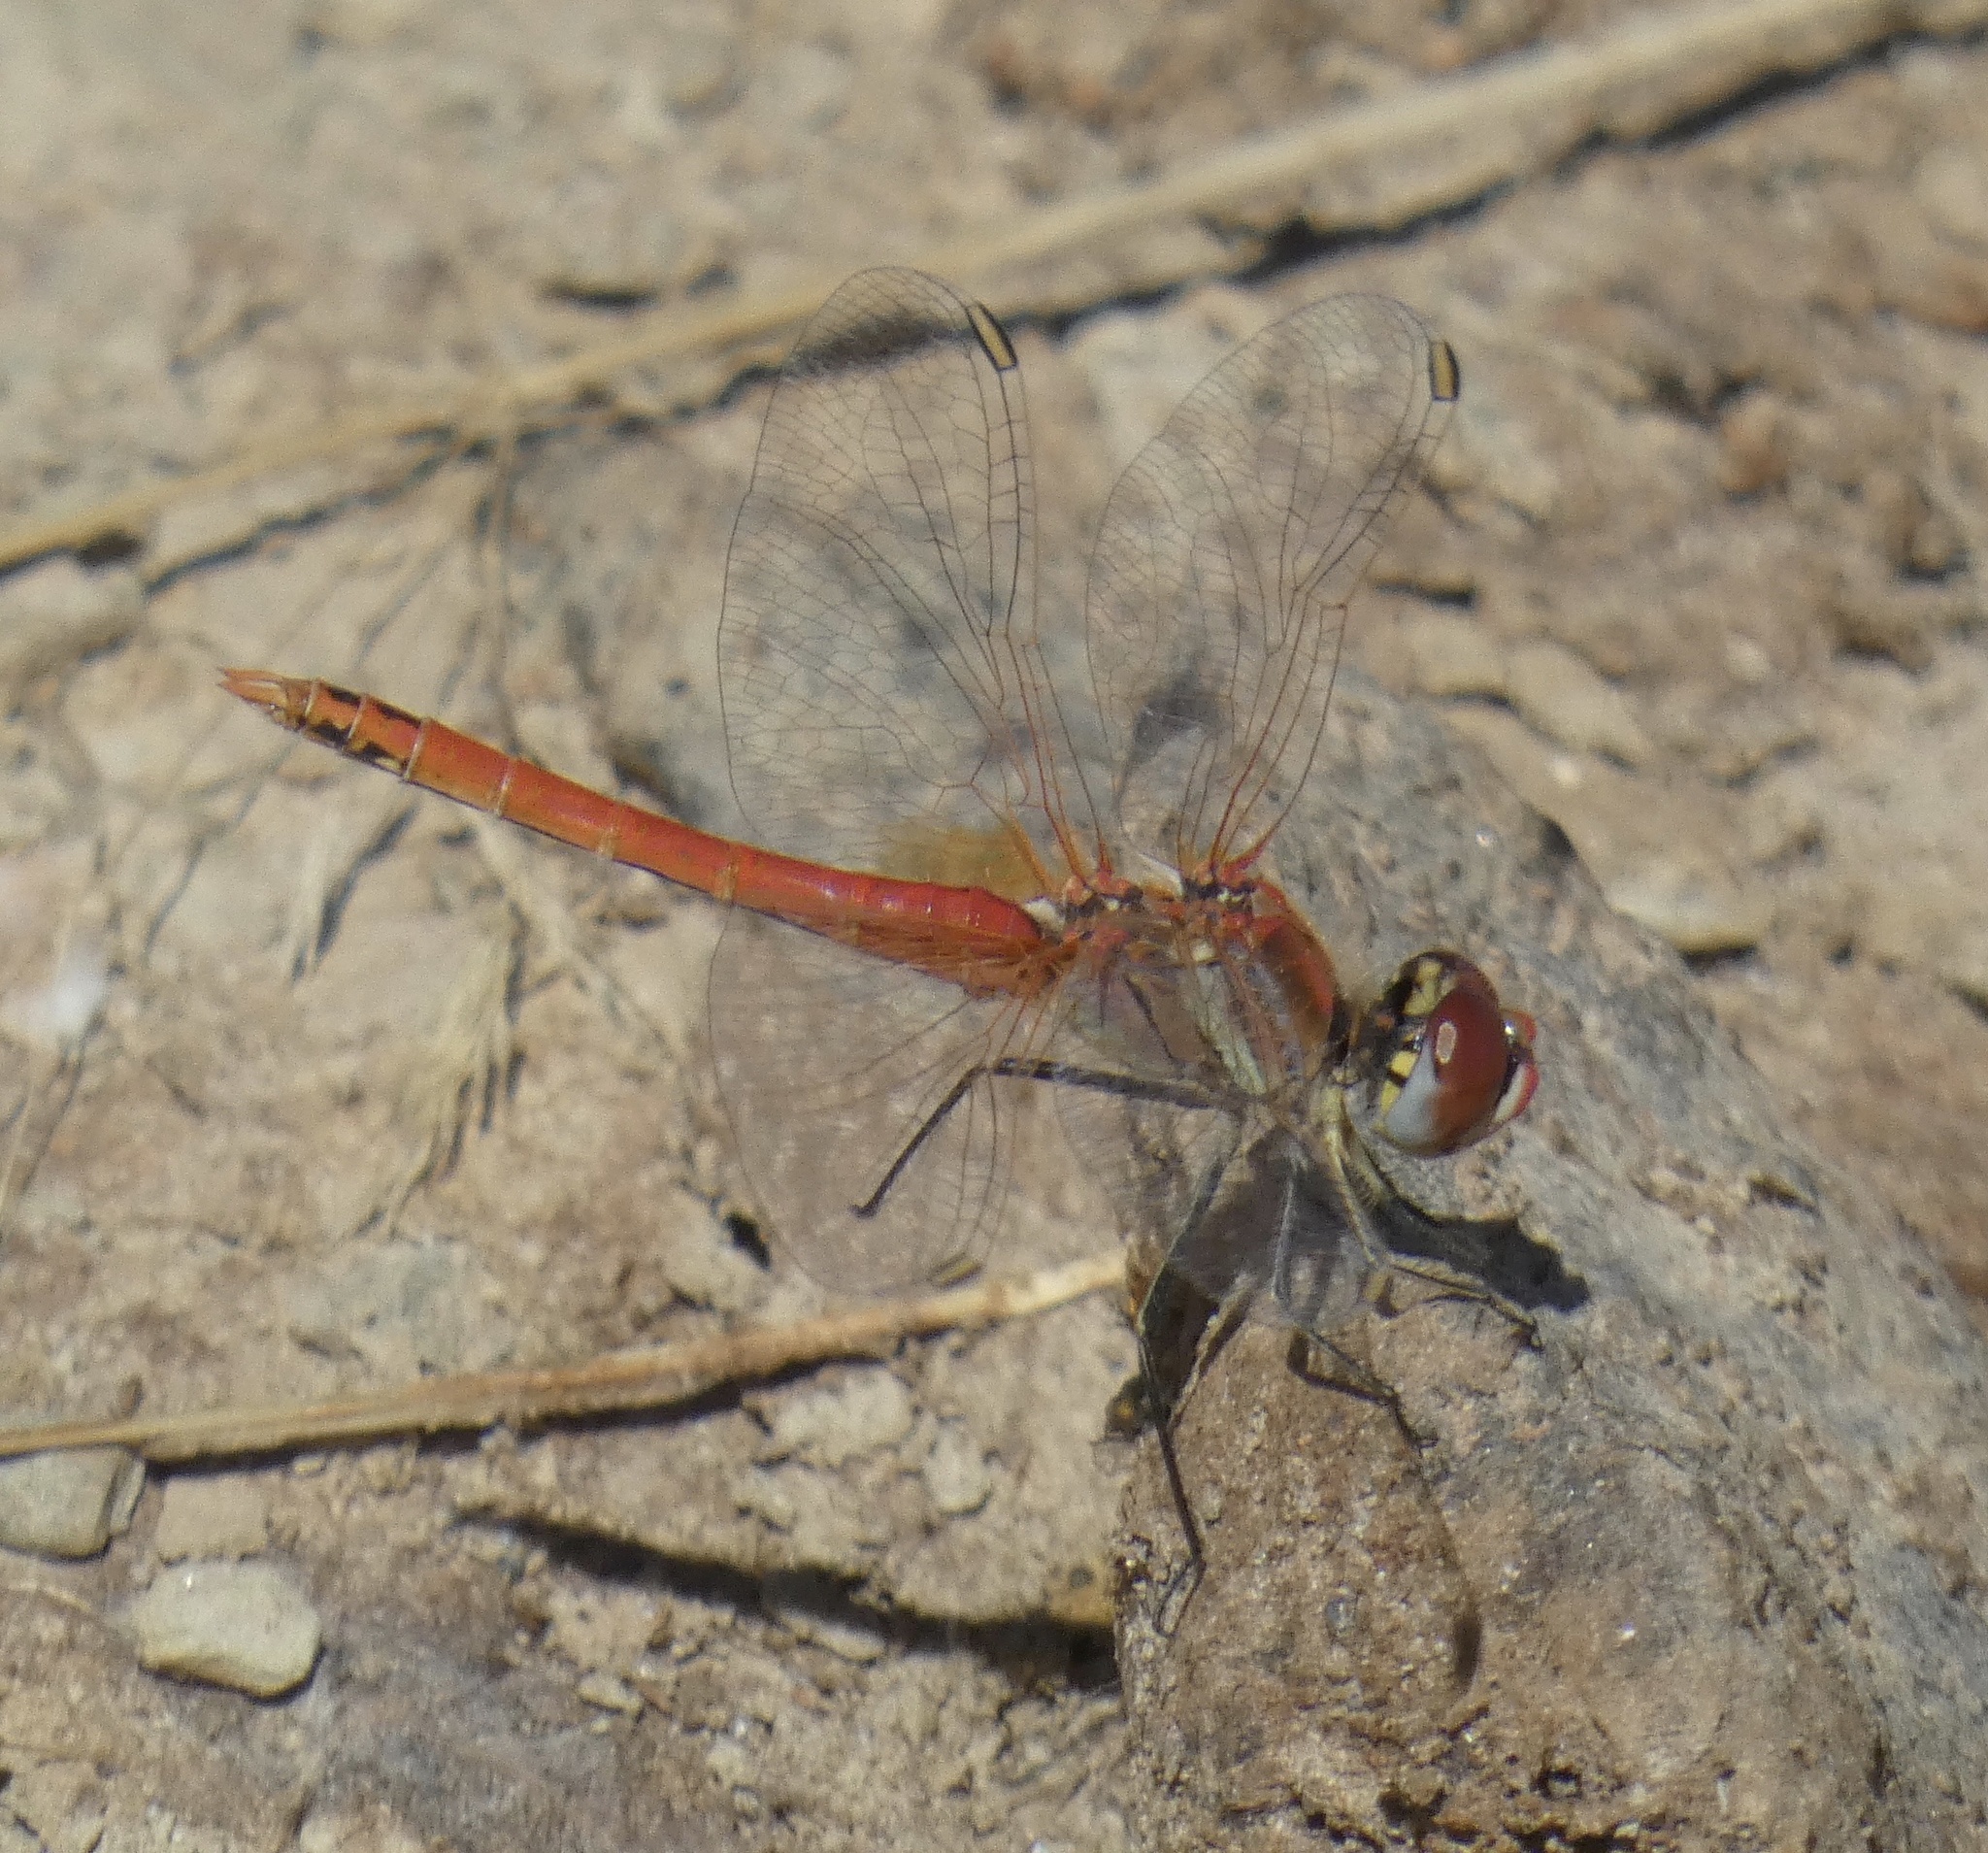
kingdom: Animalia
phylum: Arthropoda
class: Insecta
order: Odonata
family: Libellulidae
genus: Sympetrum
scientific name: Sympetrum fonscolombii
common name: Red-veined darter
